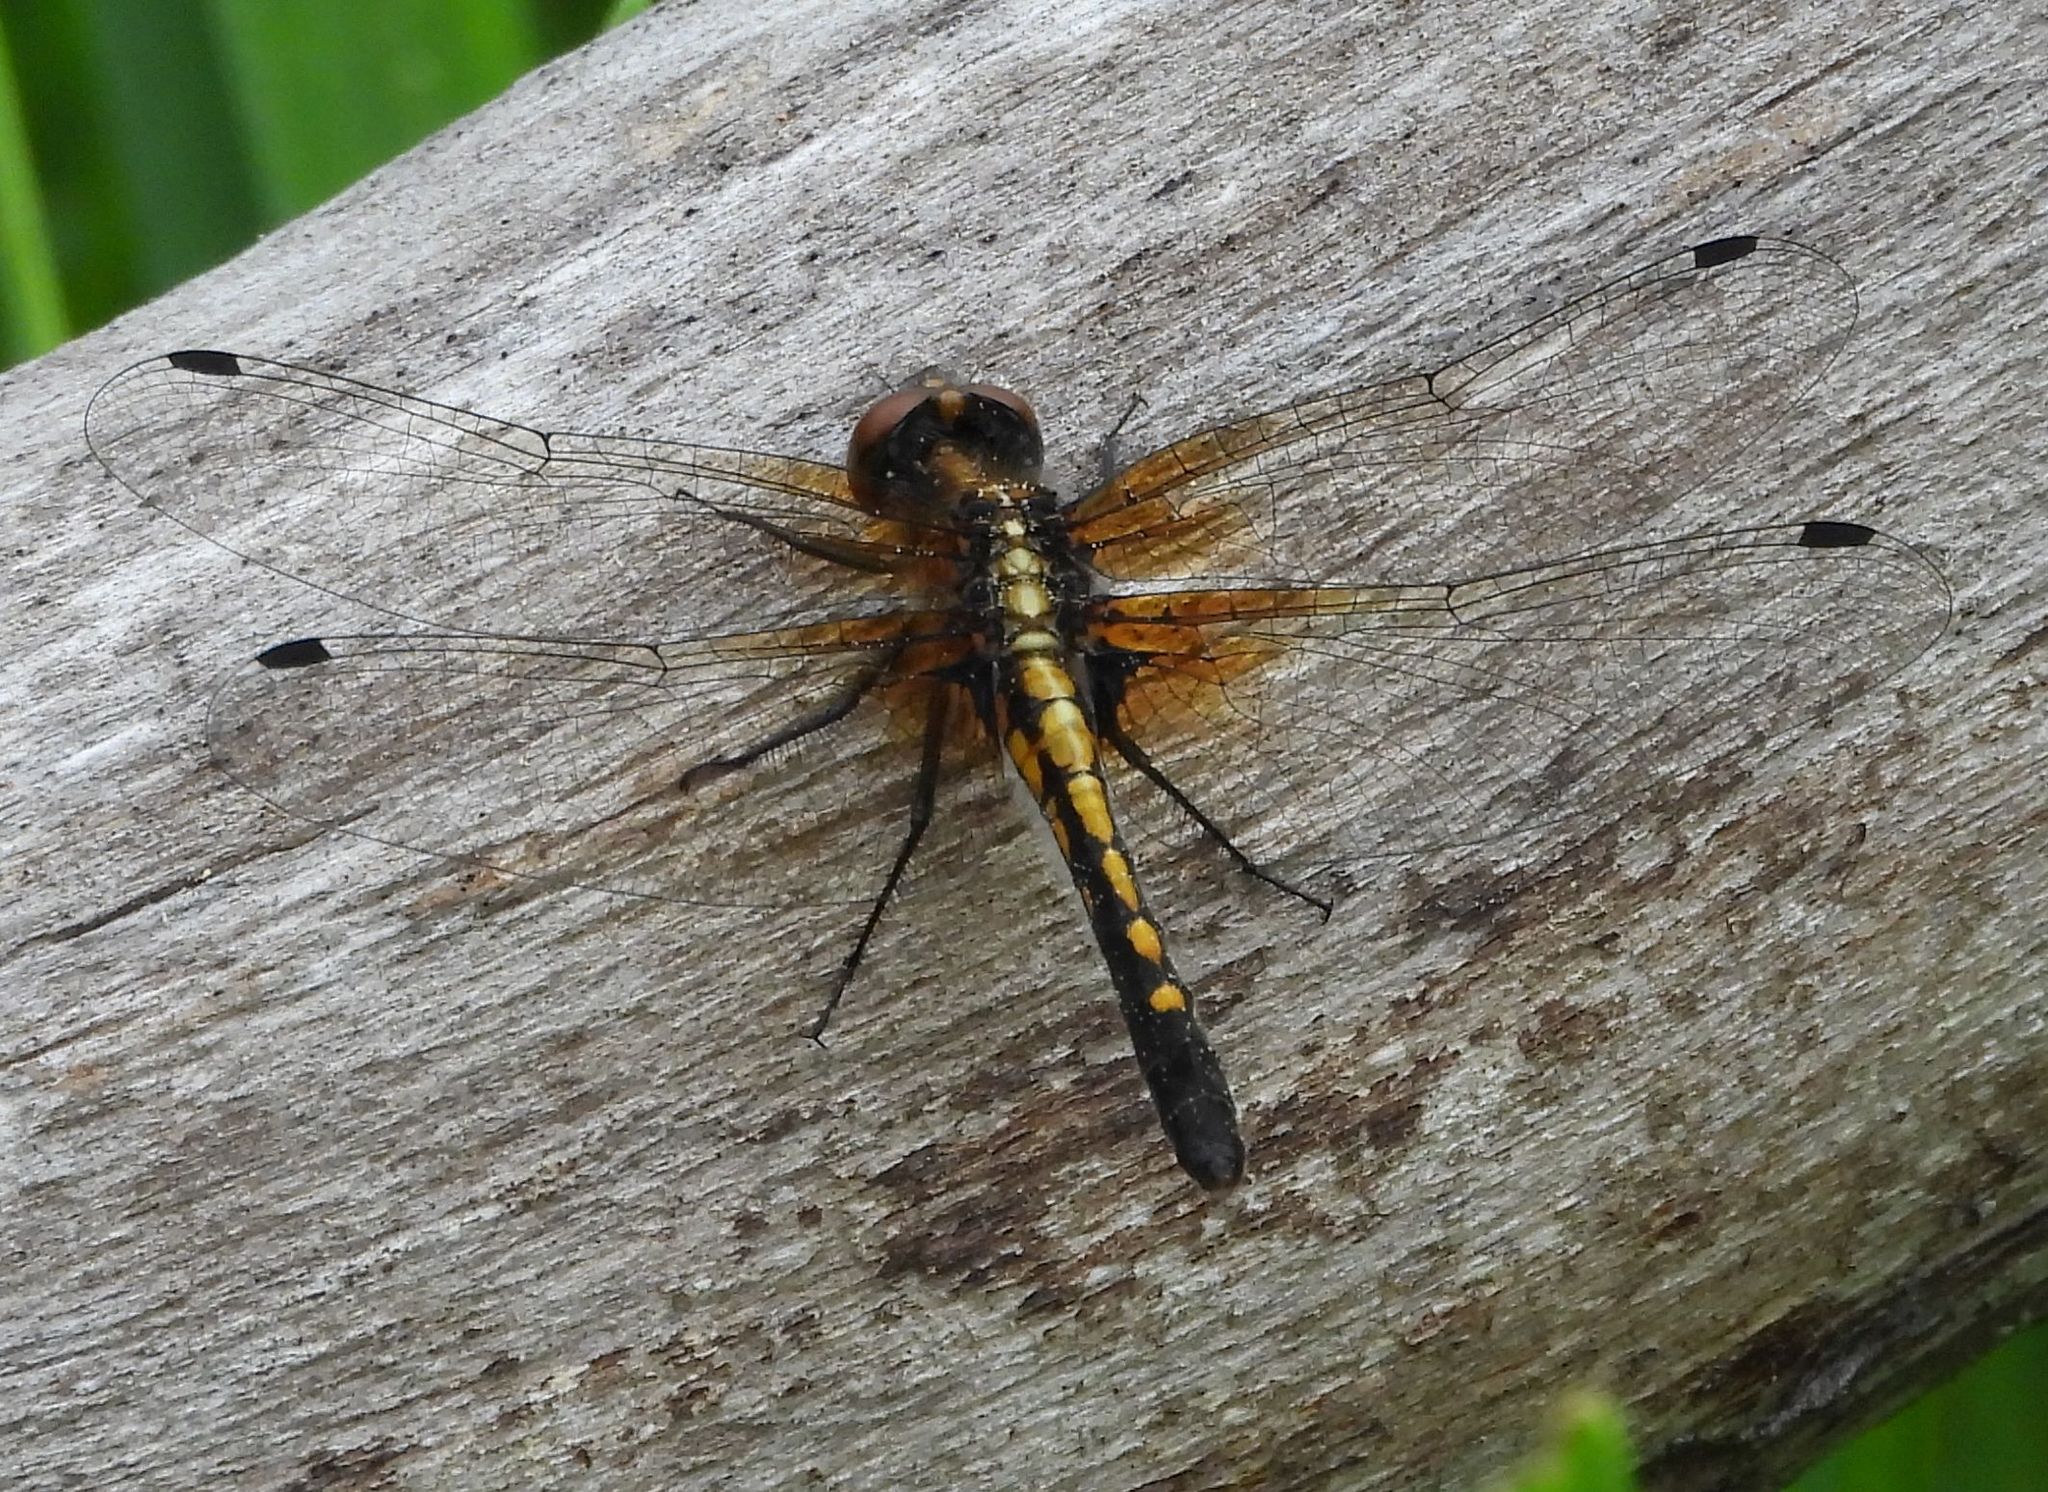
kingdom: Animalia
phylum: Arthropoda
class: Insecta
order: Odonata
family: Libellulidae
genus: Leucorrhinia
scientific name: Leucorrhinia intacta
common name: Dot-tailed whiteface
